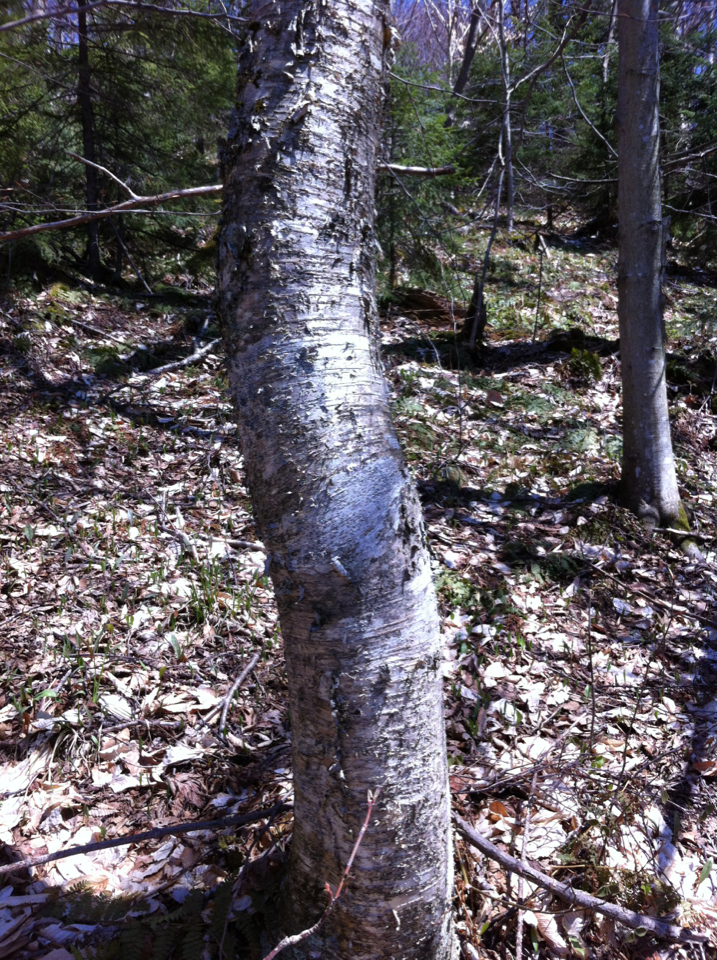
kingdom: Plantae
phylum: Tracheophyta
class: Magnoliopsida
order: Fagales
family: Betulaceae
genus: Betula
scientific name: Betula alleghaniensis
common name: Yellow birch
